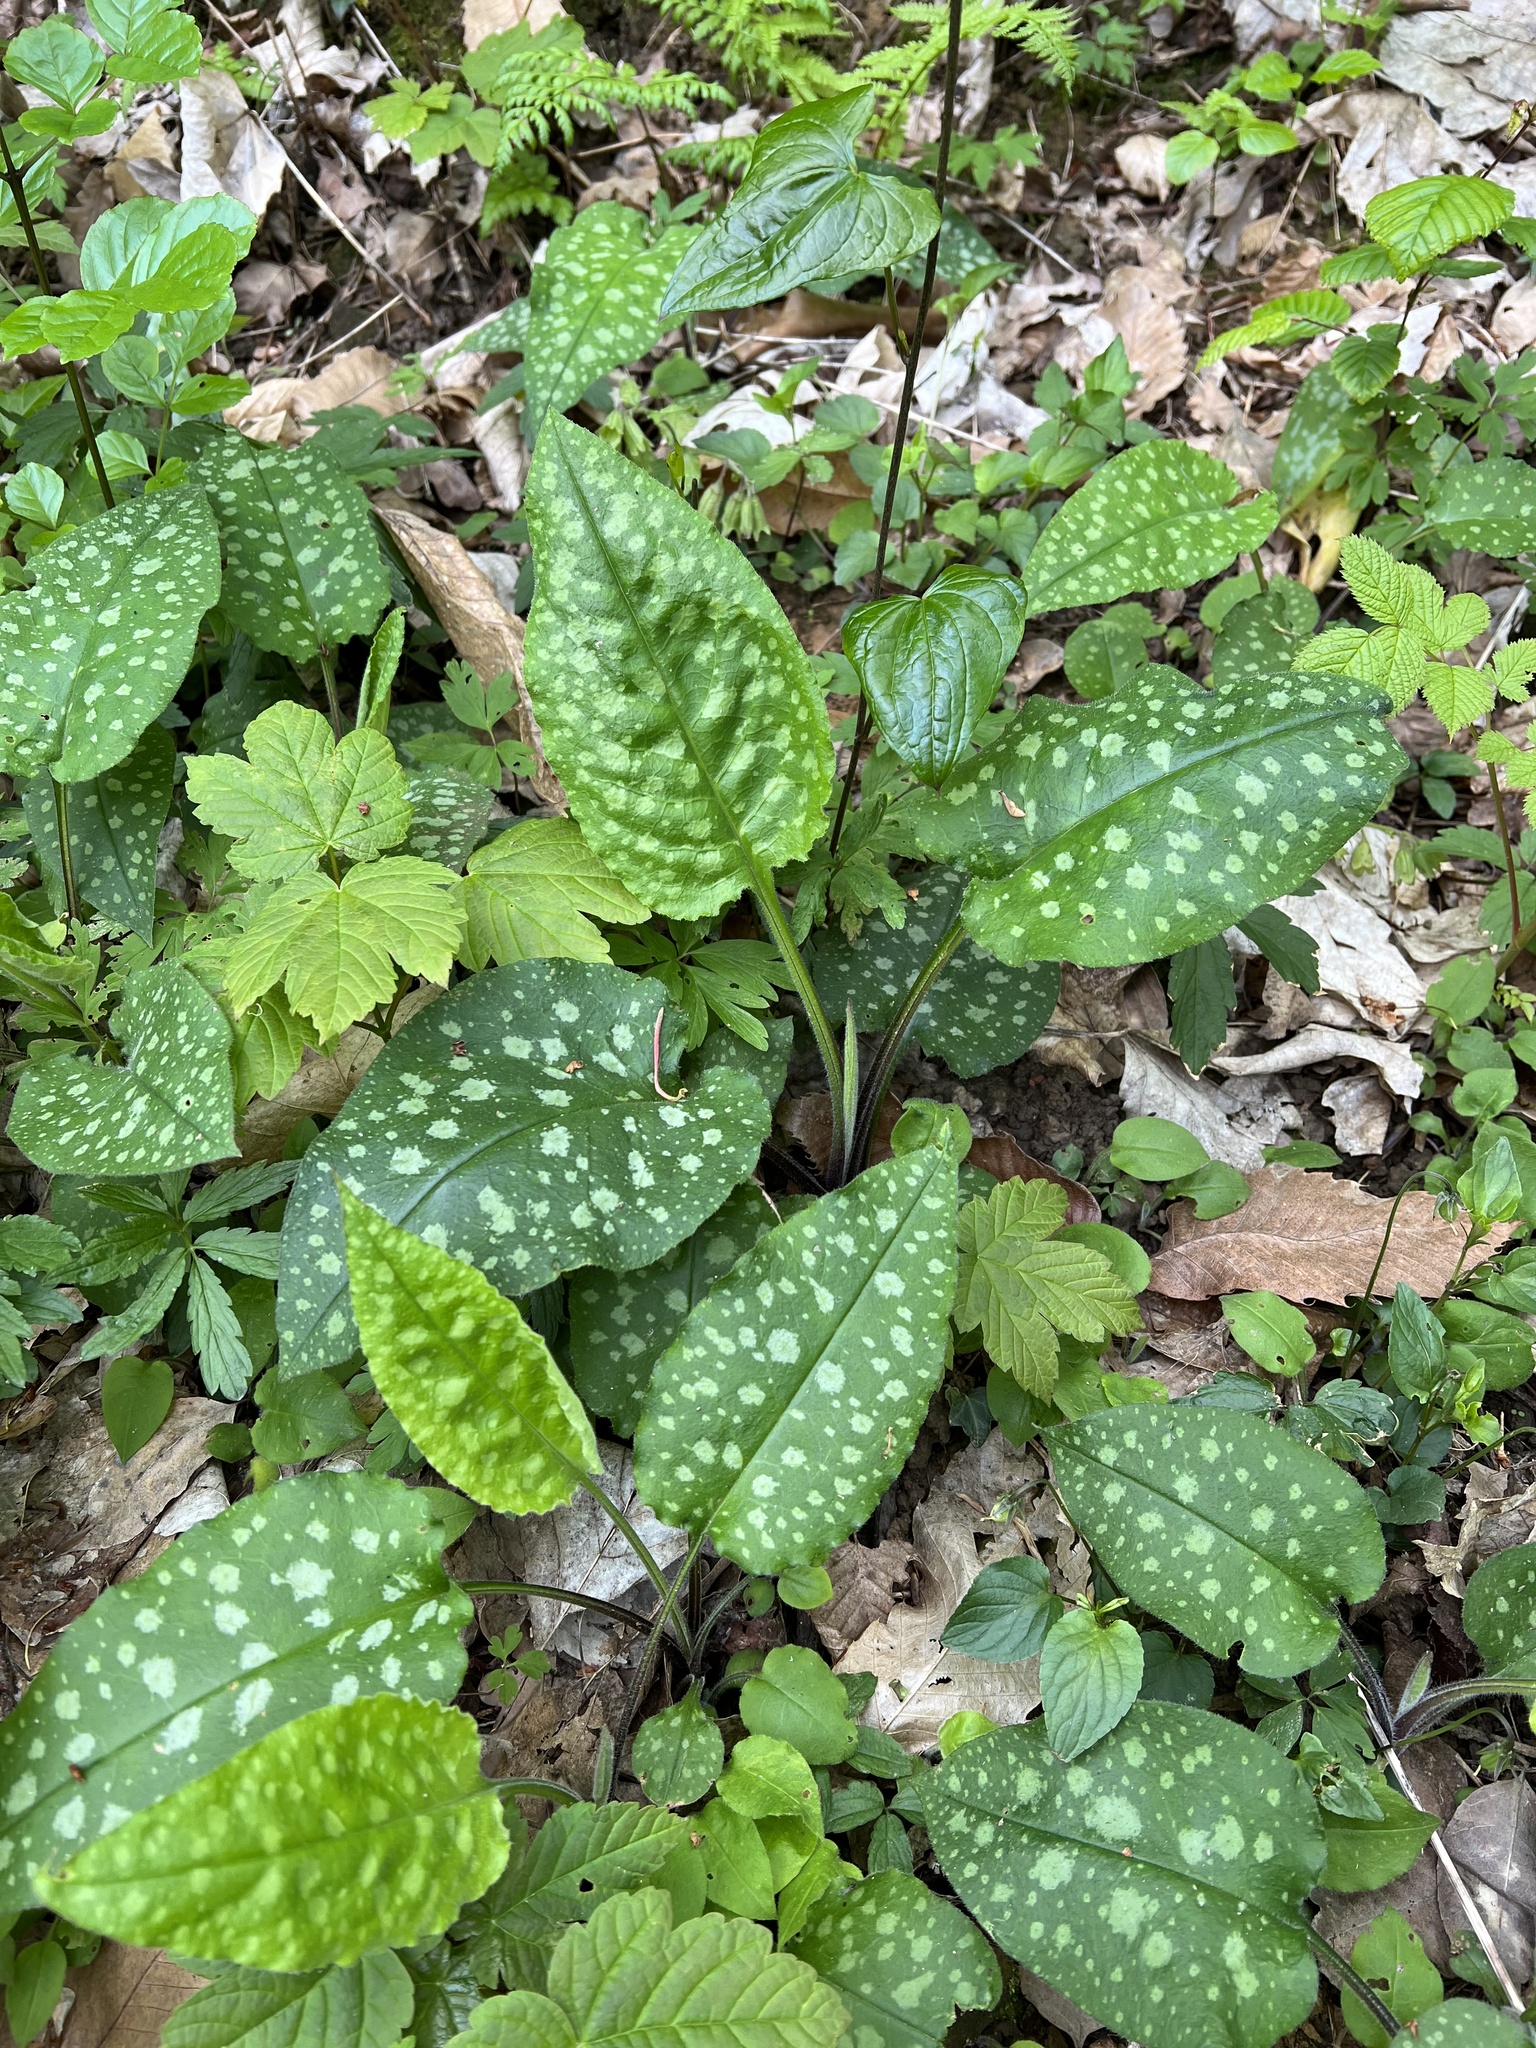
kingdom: Plantae
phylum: Tracheophyta
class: Magnoliopsida
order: Boraginales
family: Boraginaceae
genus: Pulmonaria
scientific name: Pulmonaria officinalis
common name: Lungwort
